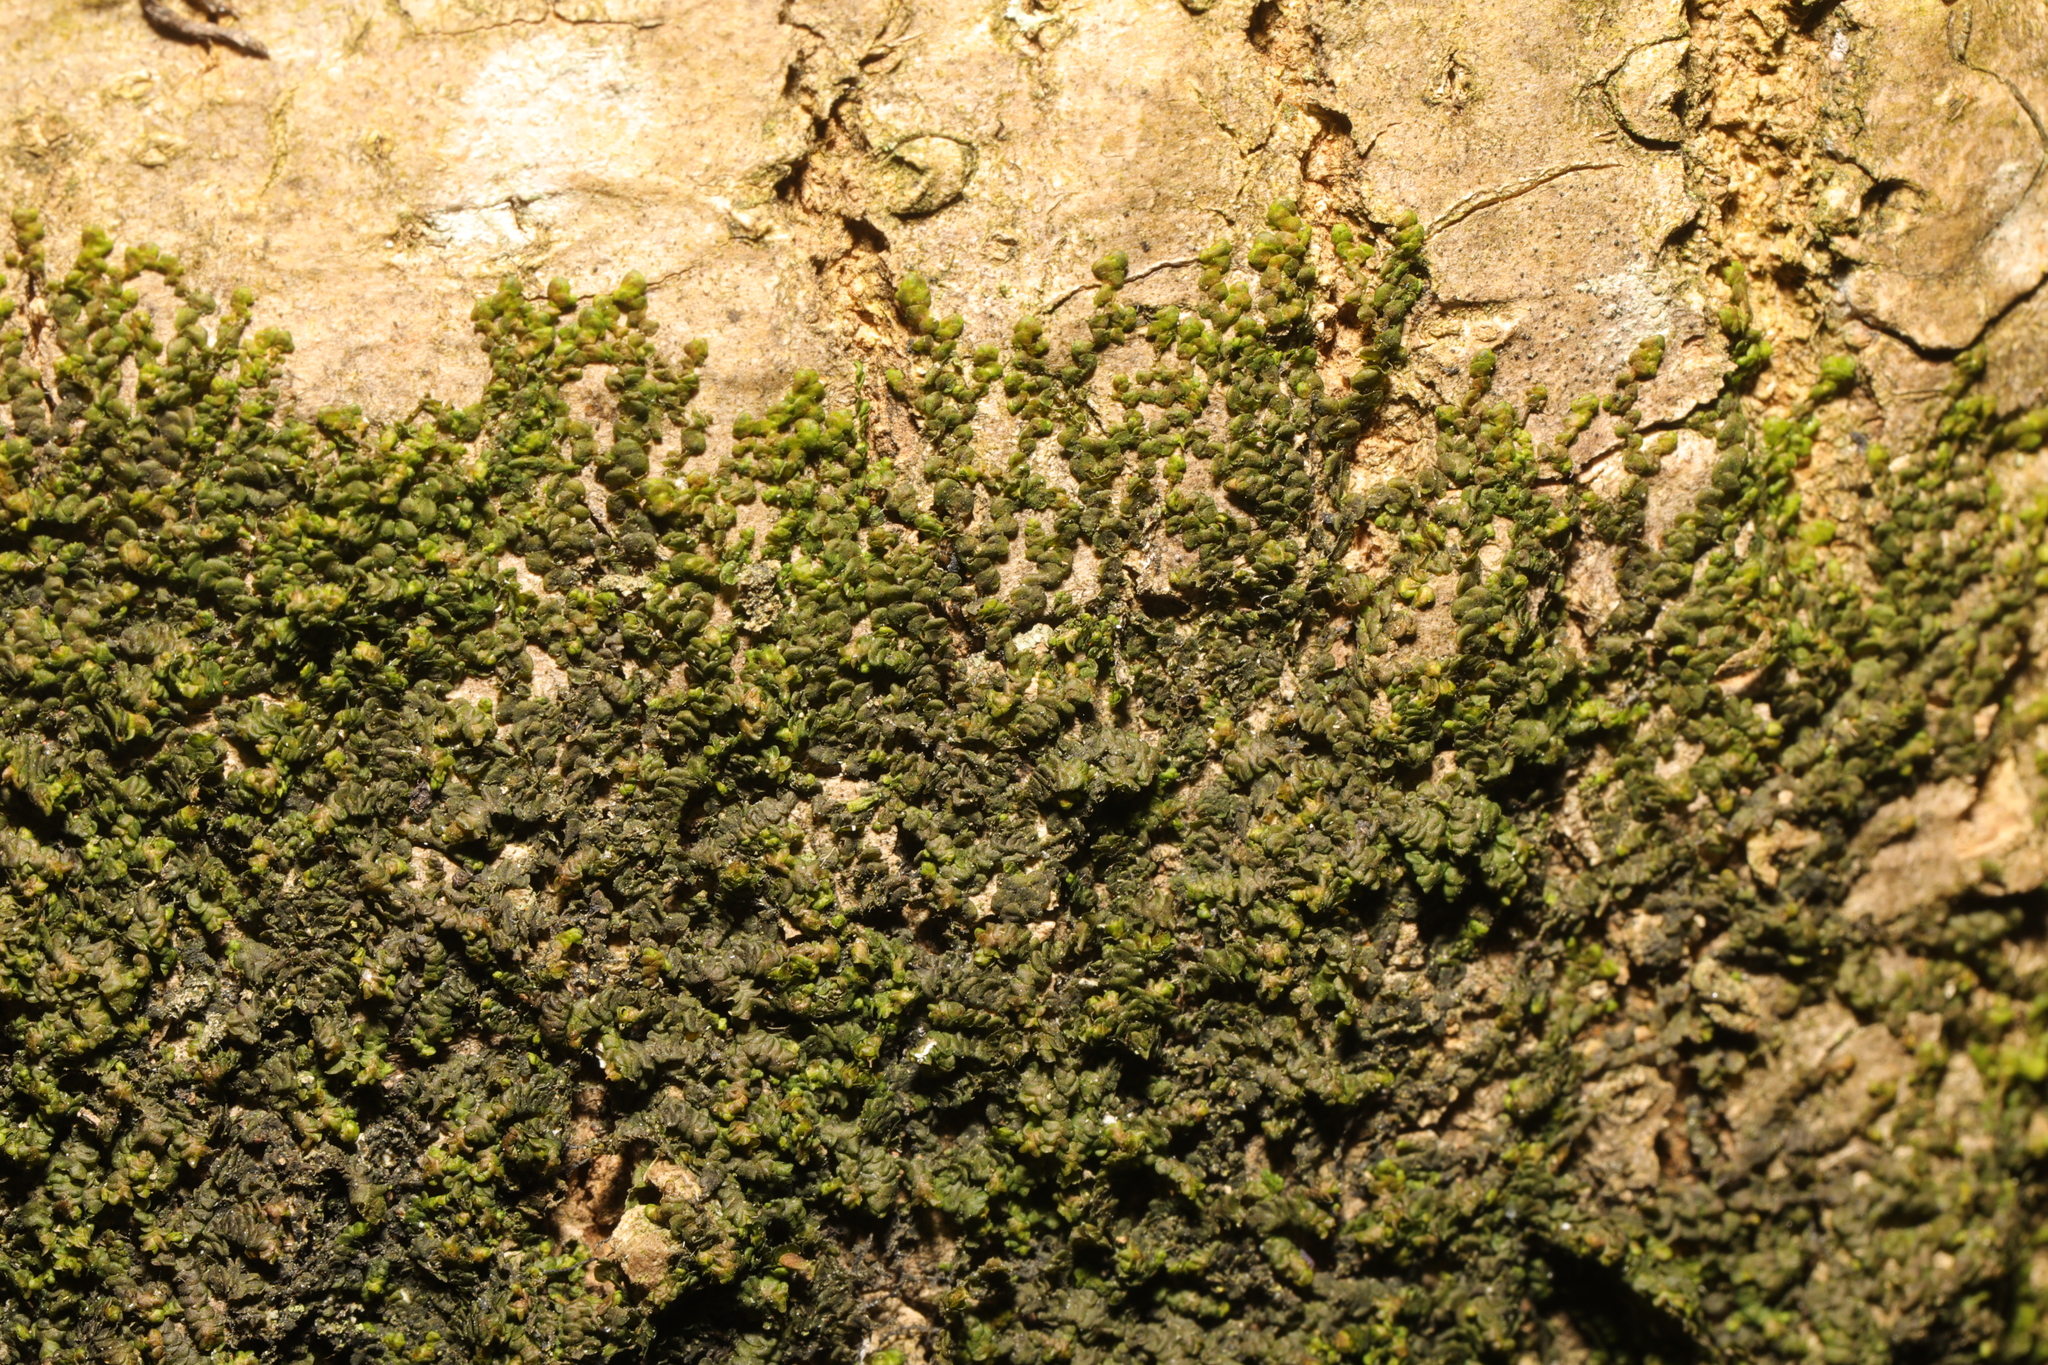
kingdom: Plantae
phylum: Marchantiophyta
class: Jungermanniopsida
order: Porellales
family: Frullaniaceae
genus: Frullania
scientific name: Frullania dilatata
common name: Dilated scalewort
